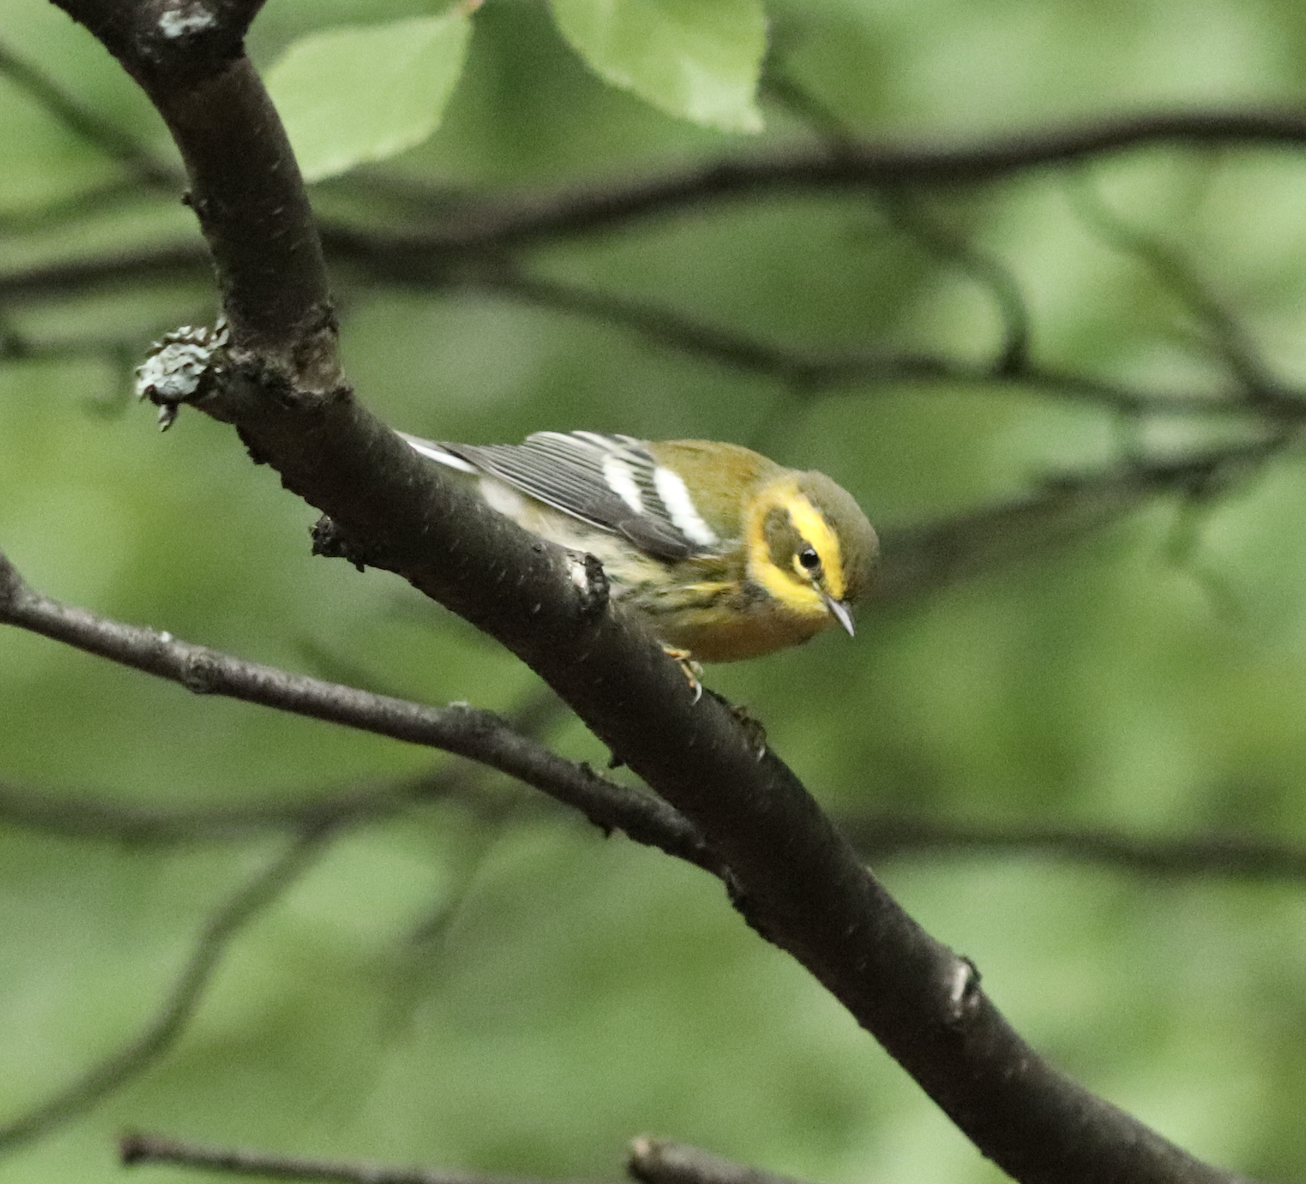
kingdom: Animalia
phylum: Chordata
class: Aves
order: Passeriformes
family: Parulidae
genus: Setophaga
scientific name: Setophaga townsendi
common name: Townsend's warbler
